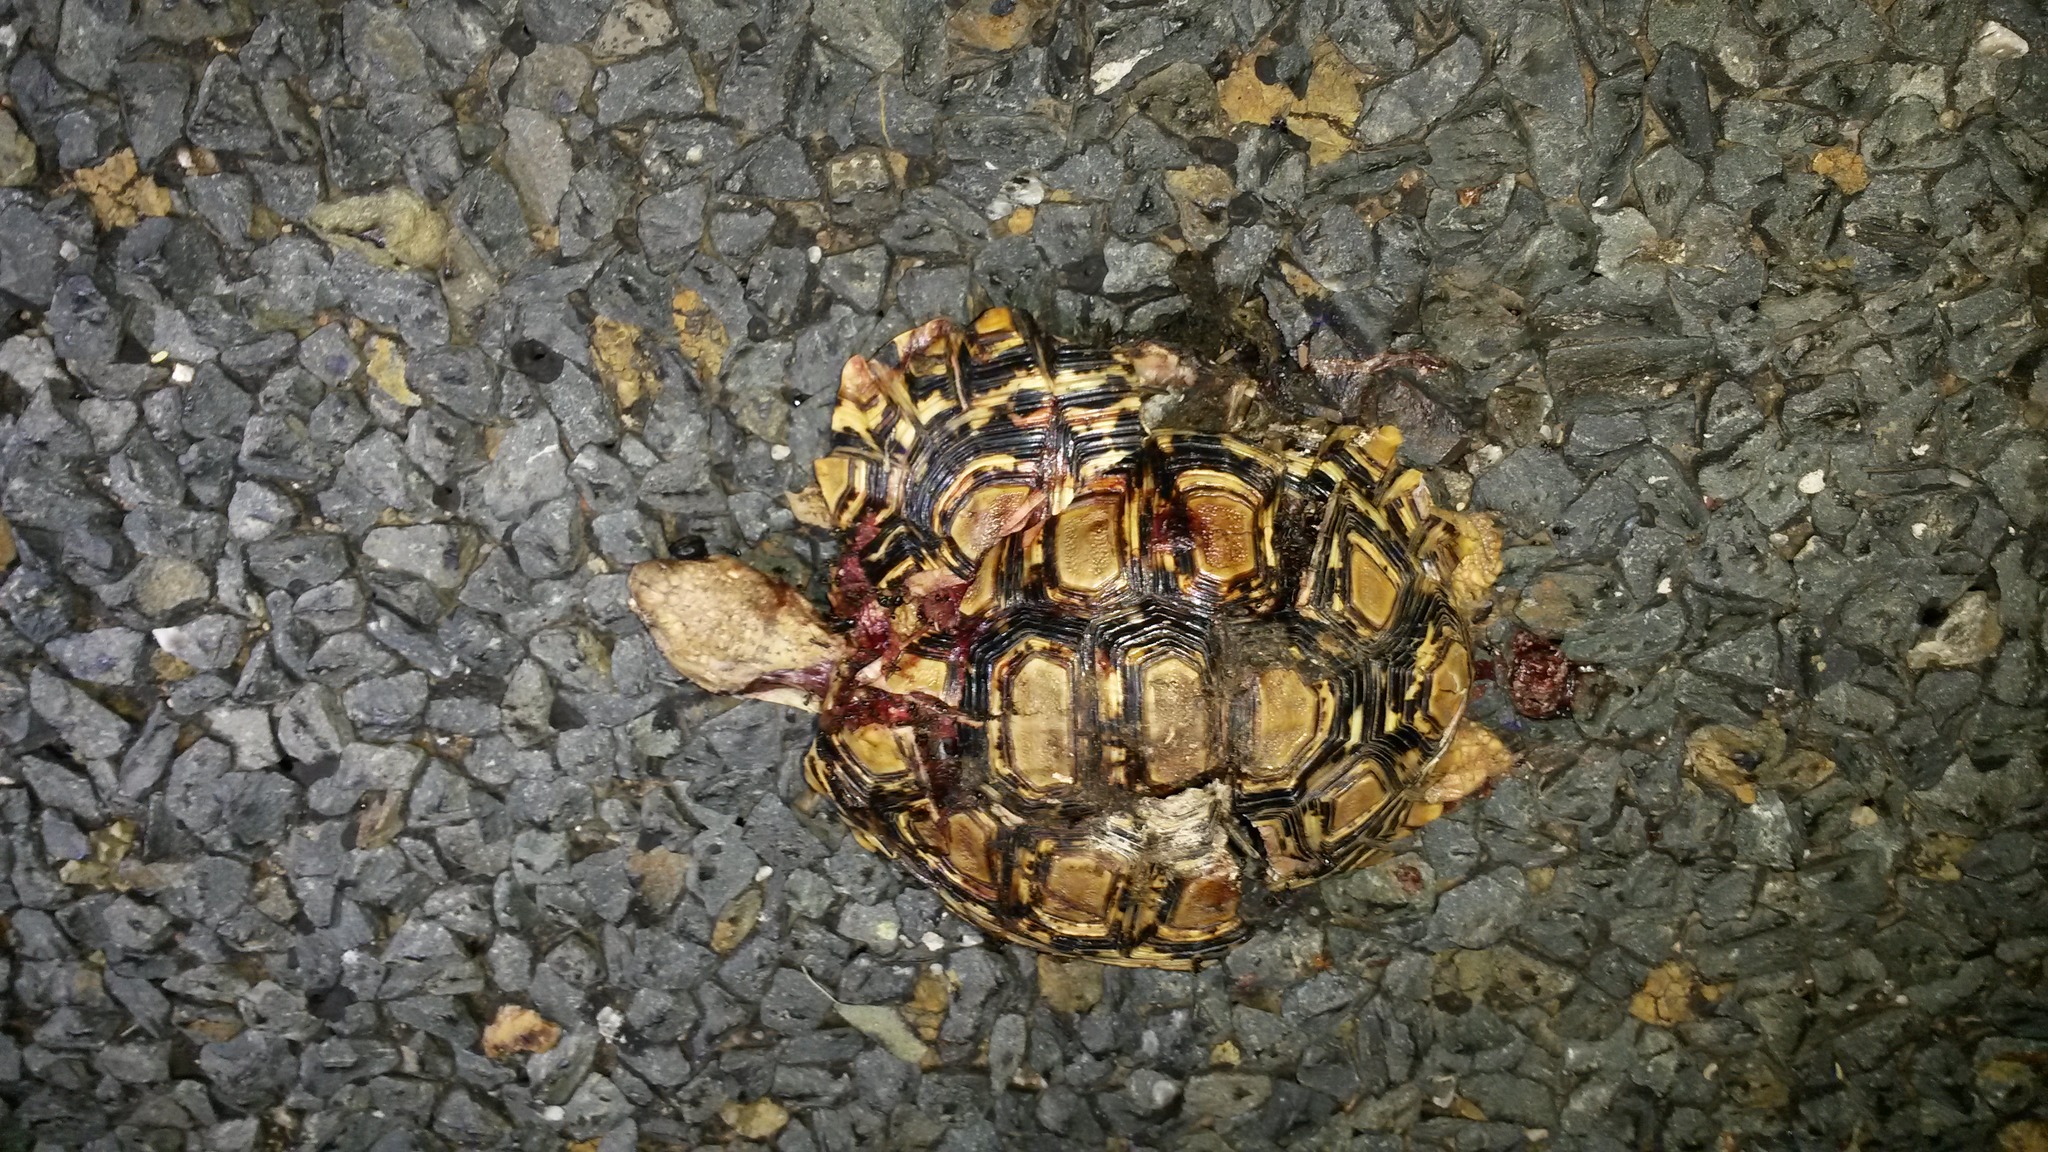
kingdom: Animalia
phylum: Chordata
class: Testudines
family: Testudinidae
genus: Stigmochelys
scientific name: Stigmochelys pardalis
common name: Leopard tortoise
